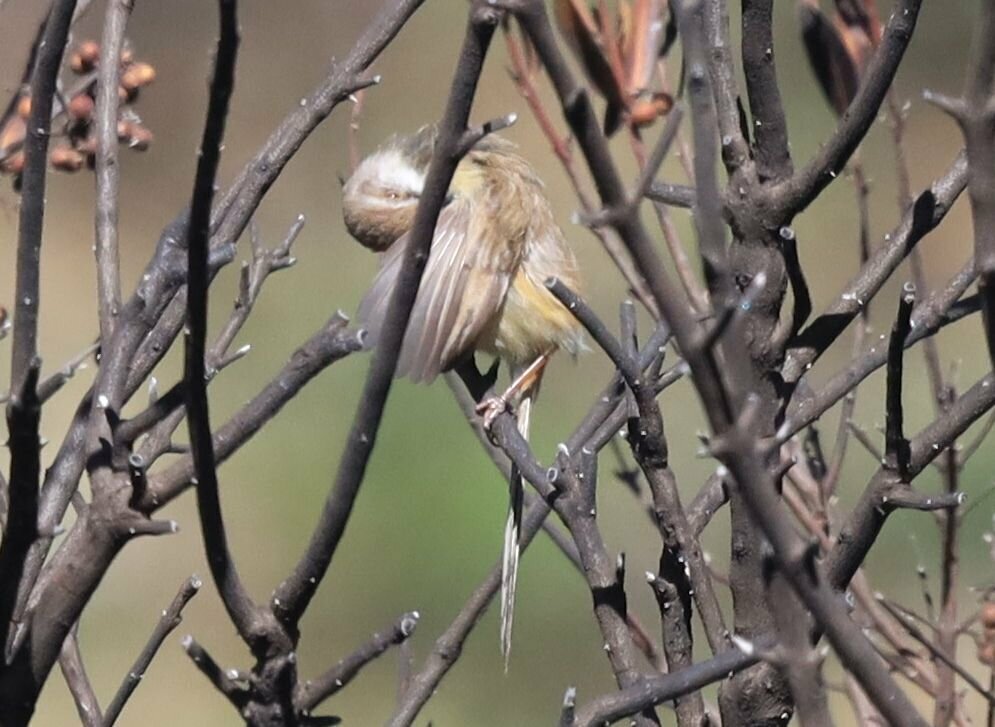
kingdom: Animalia
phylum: Chordata
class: Aves
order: Passeriformes
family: Cisticolidae
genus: Prinia
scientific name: Prinia flavicans
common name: Black-chested prinia
